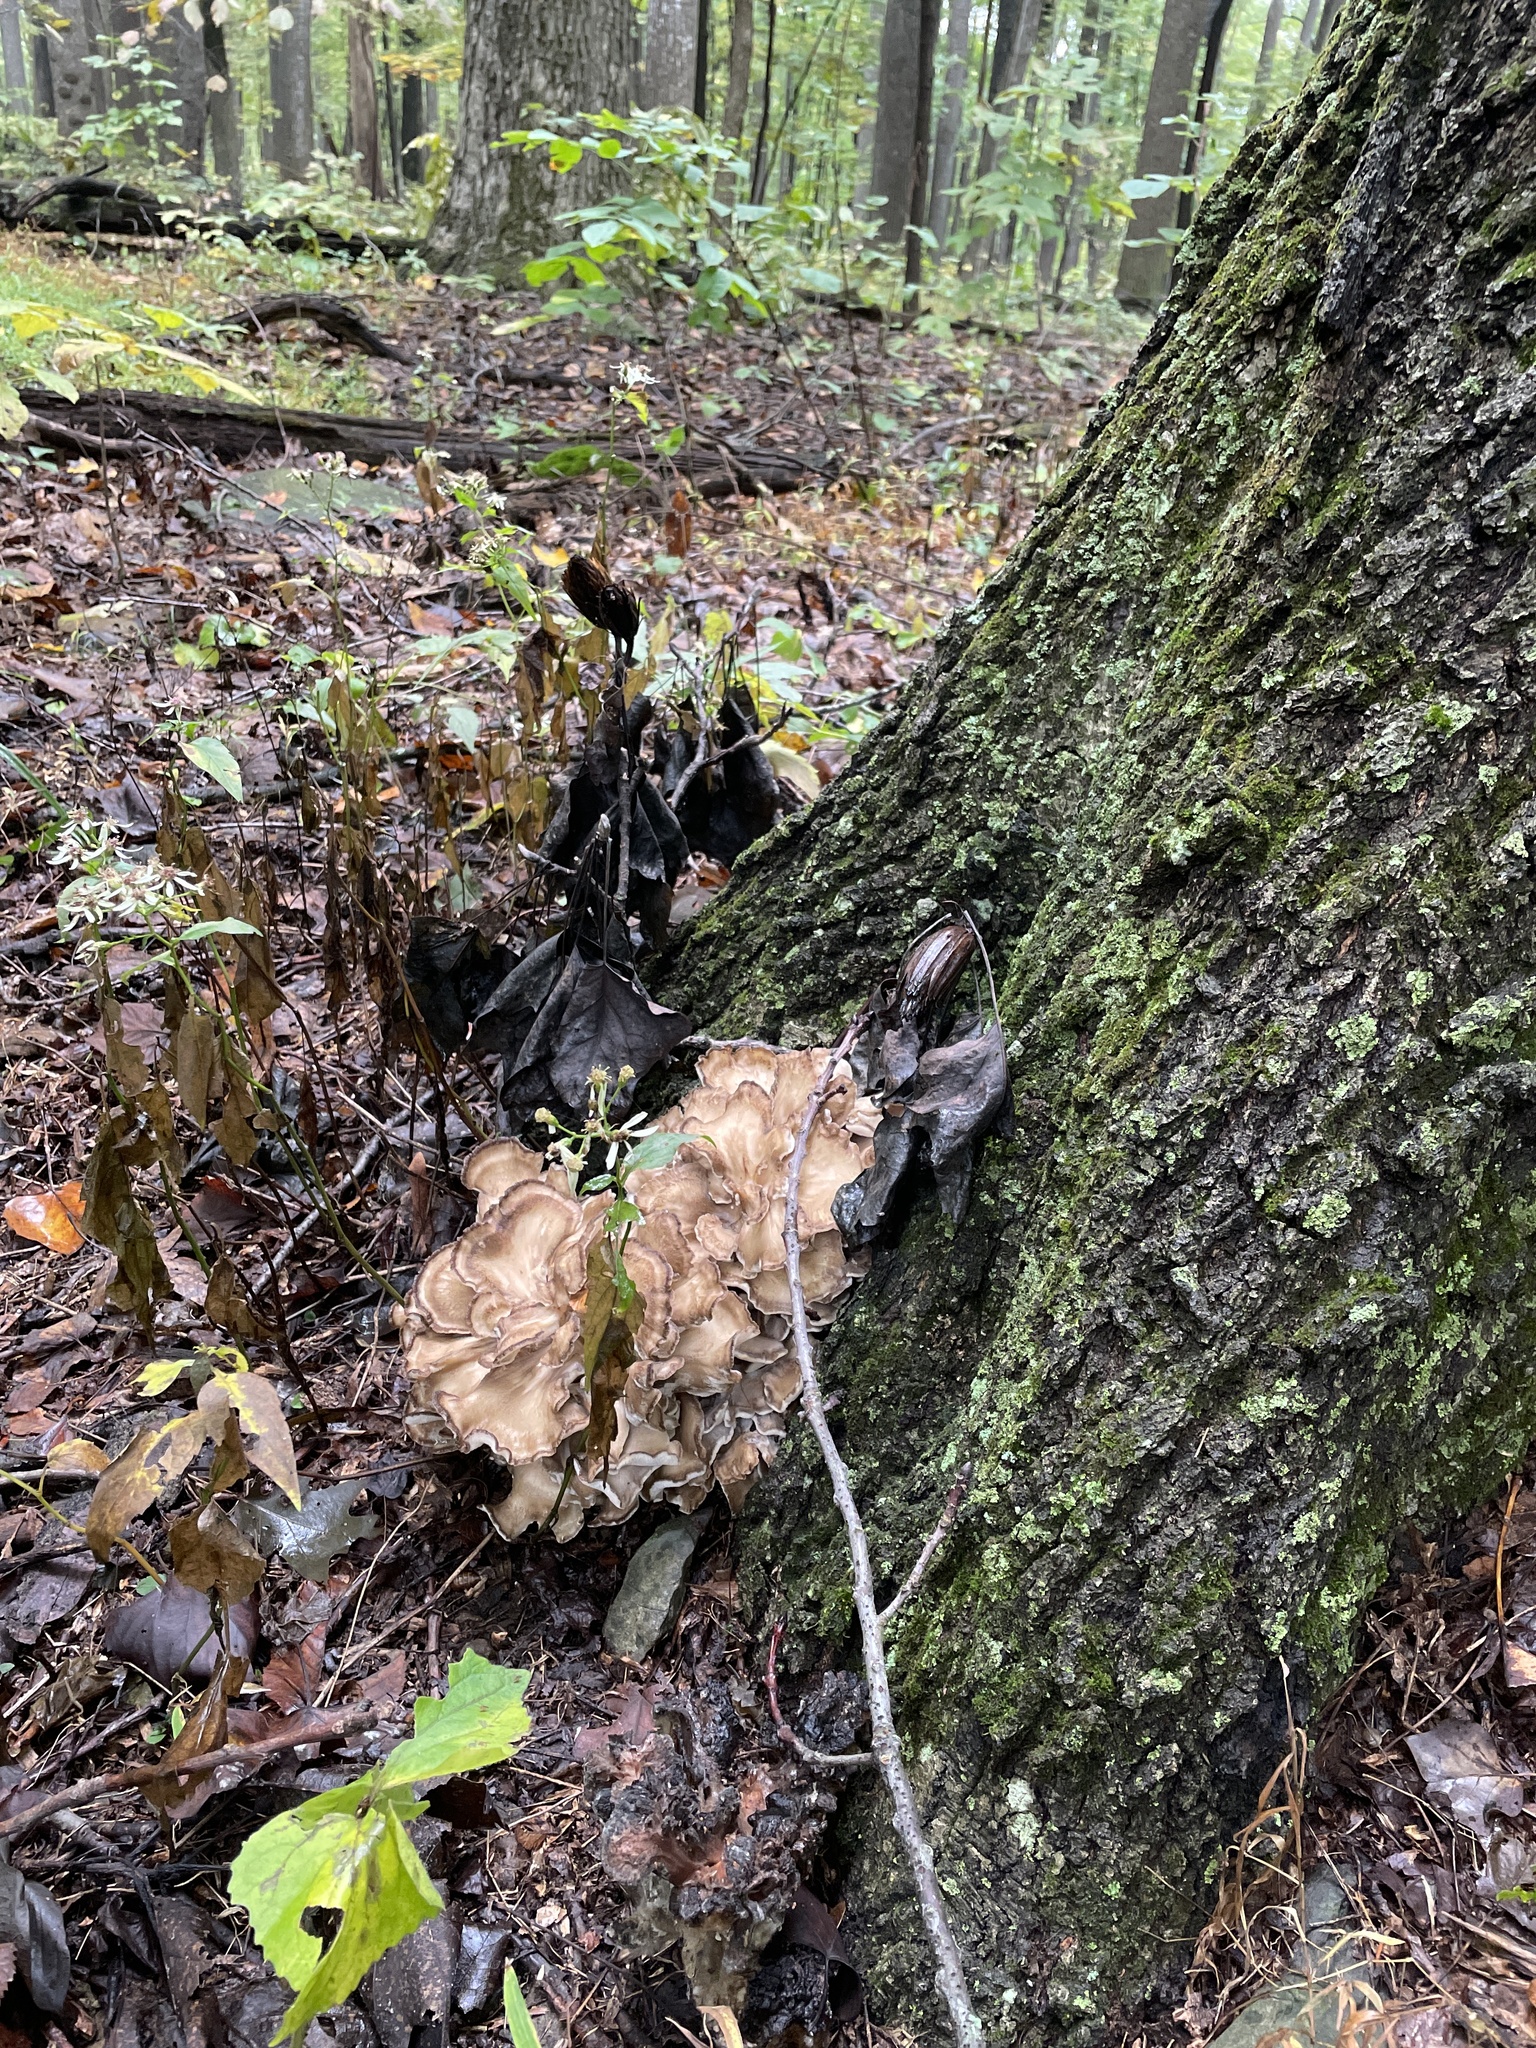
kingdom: Fungi
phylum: Basidiomycota
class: Agaricomycetes
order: Polyporales
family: Grifolaceae
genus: Grifola
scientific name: Grifola frondosa
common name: Hen of the woods
